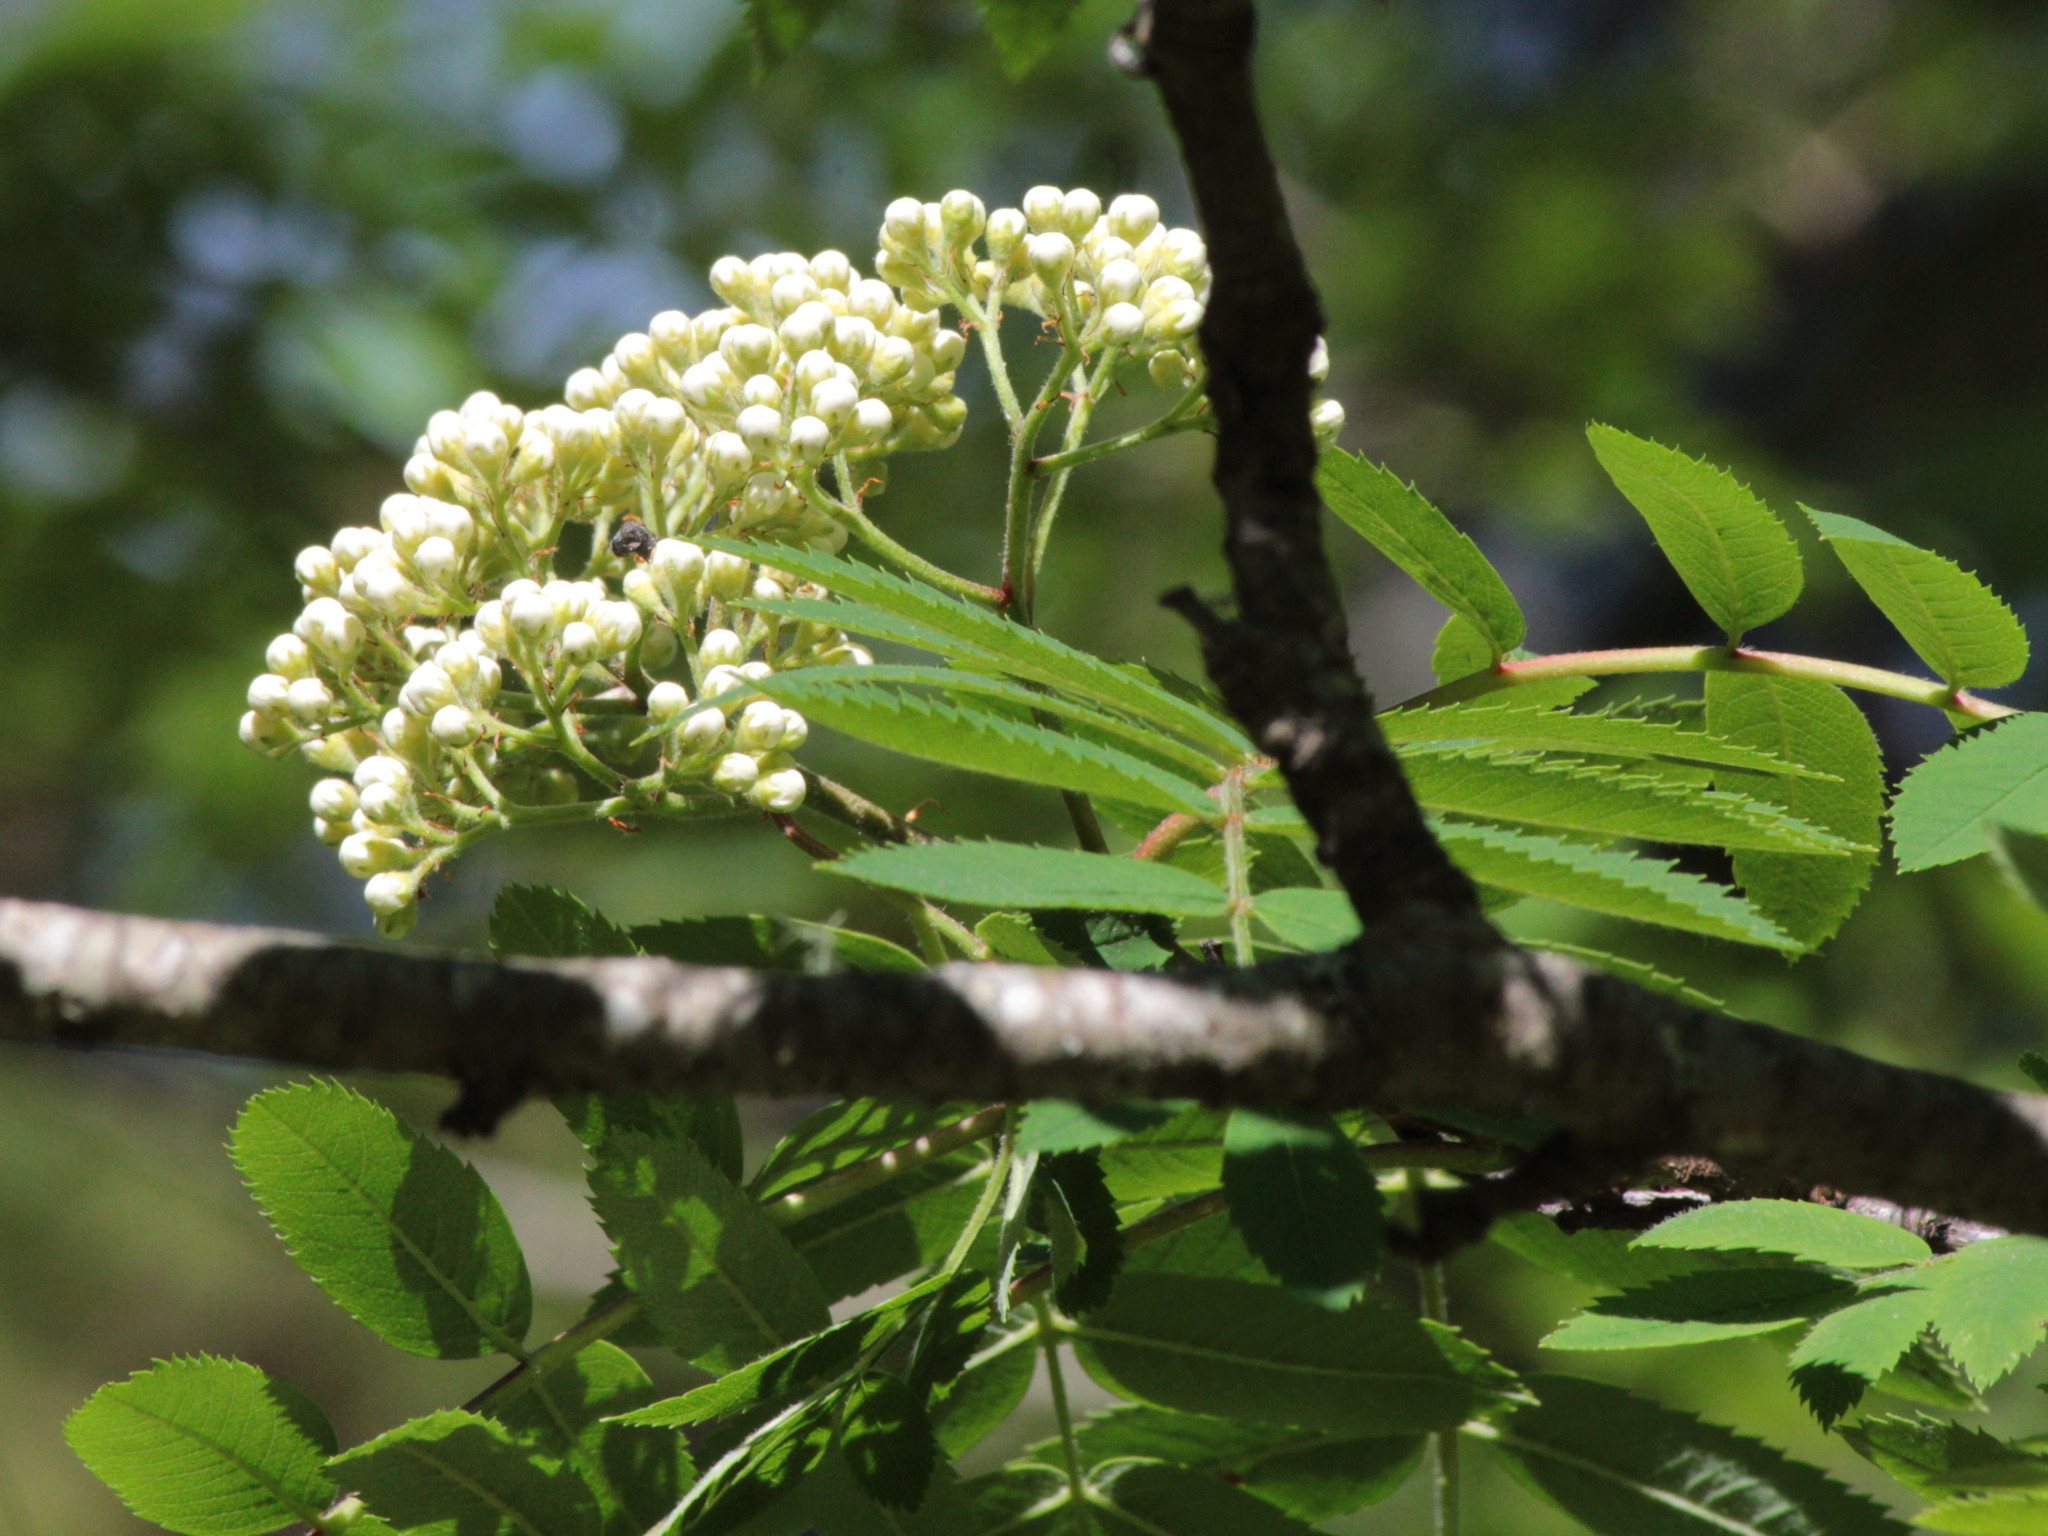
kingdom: Plantae
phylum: Tracheophyta
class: Magnoliopsida
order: Rosales
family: Rosaceae
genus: Sorbus
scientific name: Sorbus aucuparia
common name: Rowan
